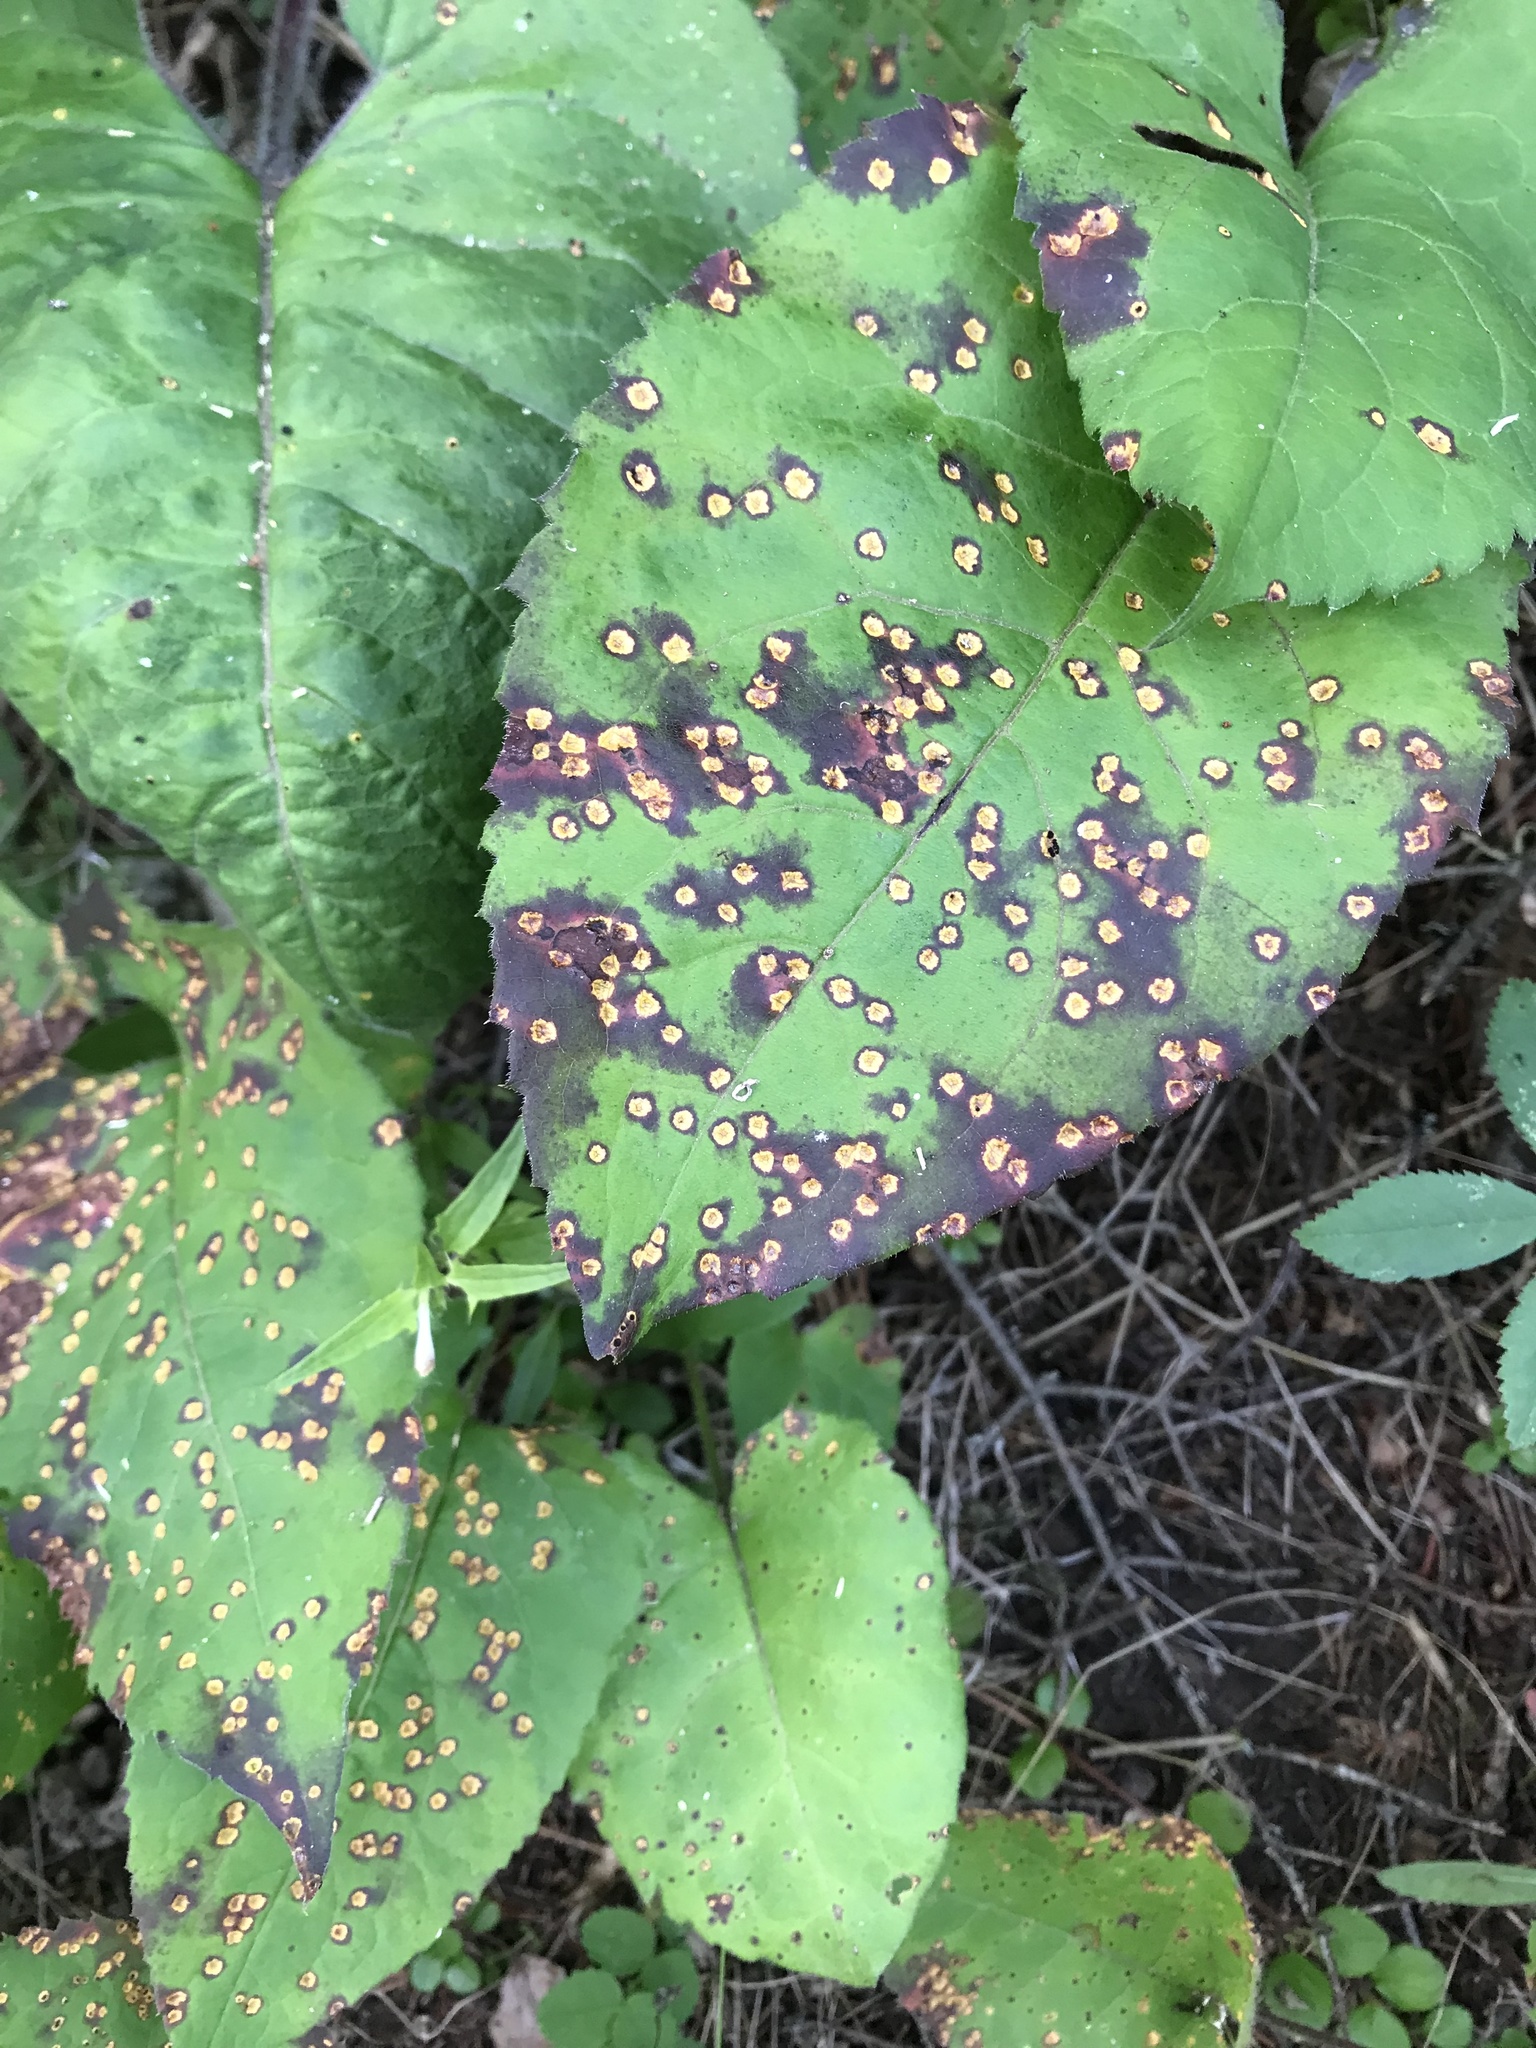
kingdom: Plantae
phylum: Tracheophyta
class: Magnoliopsida
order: Asterales
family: Asteraceae
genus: Eurybia
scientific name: Eurybia macrophylla
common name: Big-leaved aster
